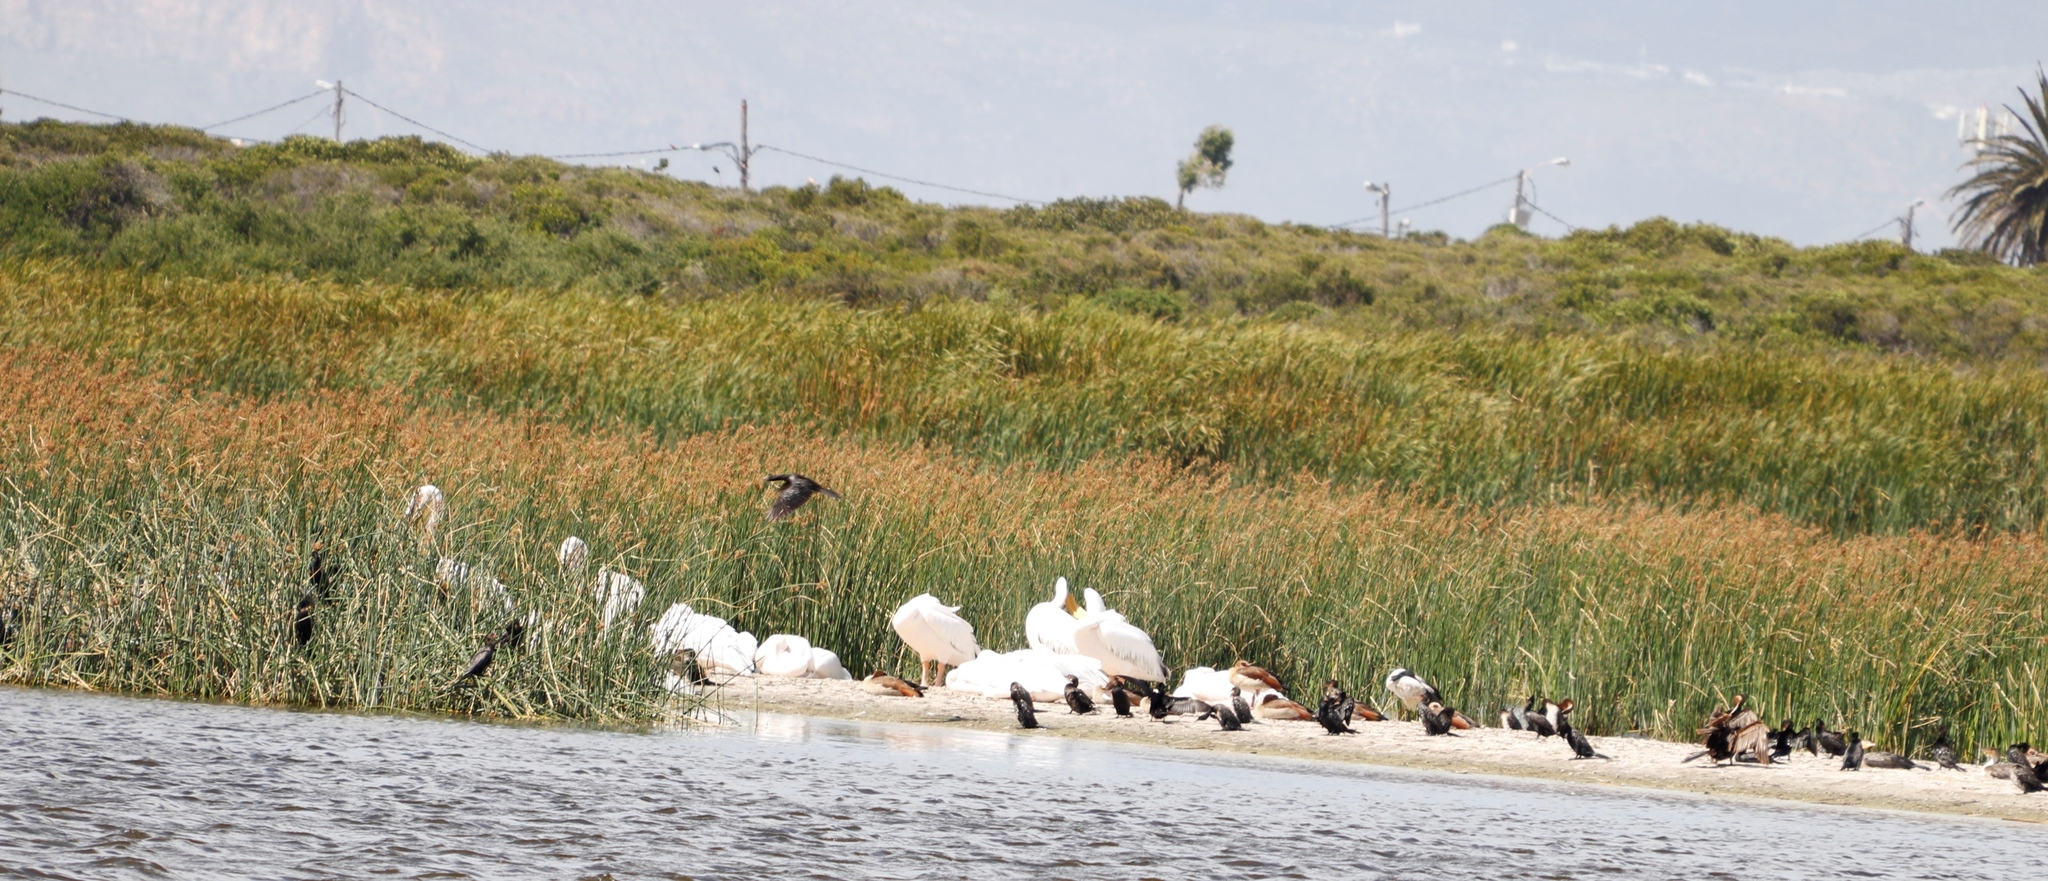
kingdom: Animalia
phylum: Chordata
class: Aves
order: Pelecaniformes
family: Pelecanidae
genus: Pelecanus
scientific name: Pelecanus onocrotalus
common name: Great white pelican
